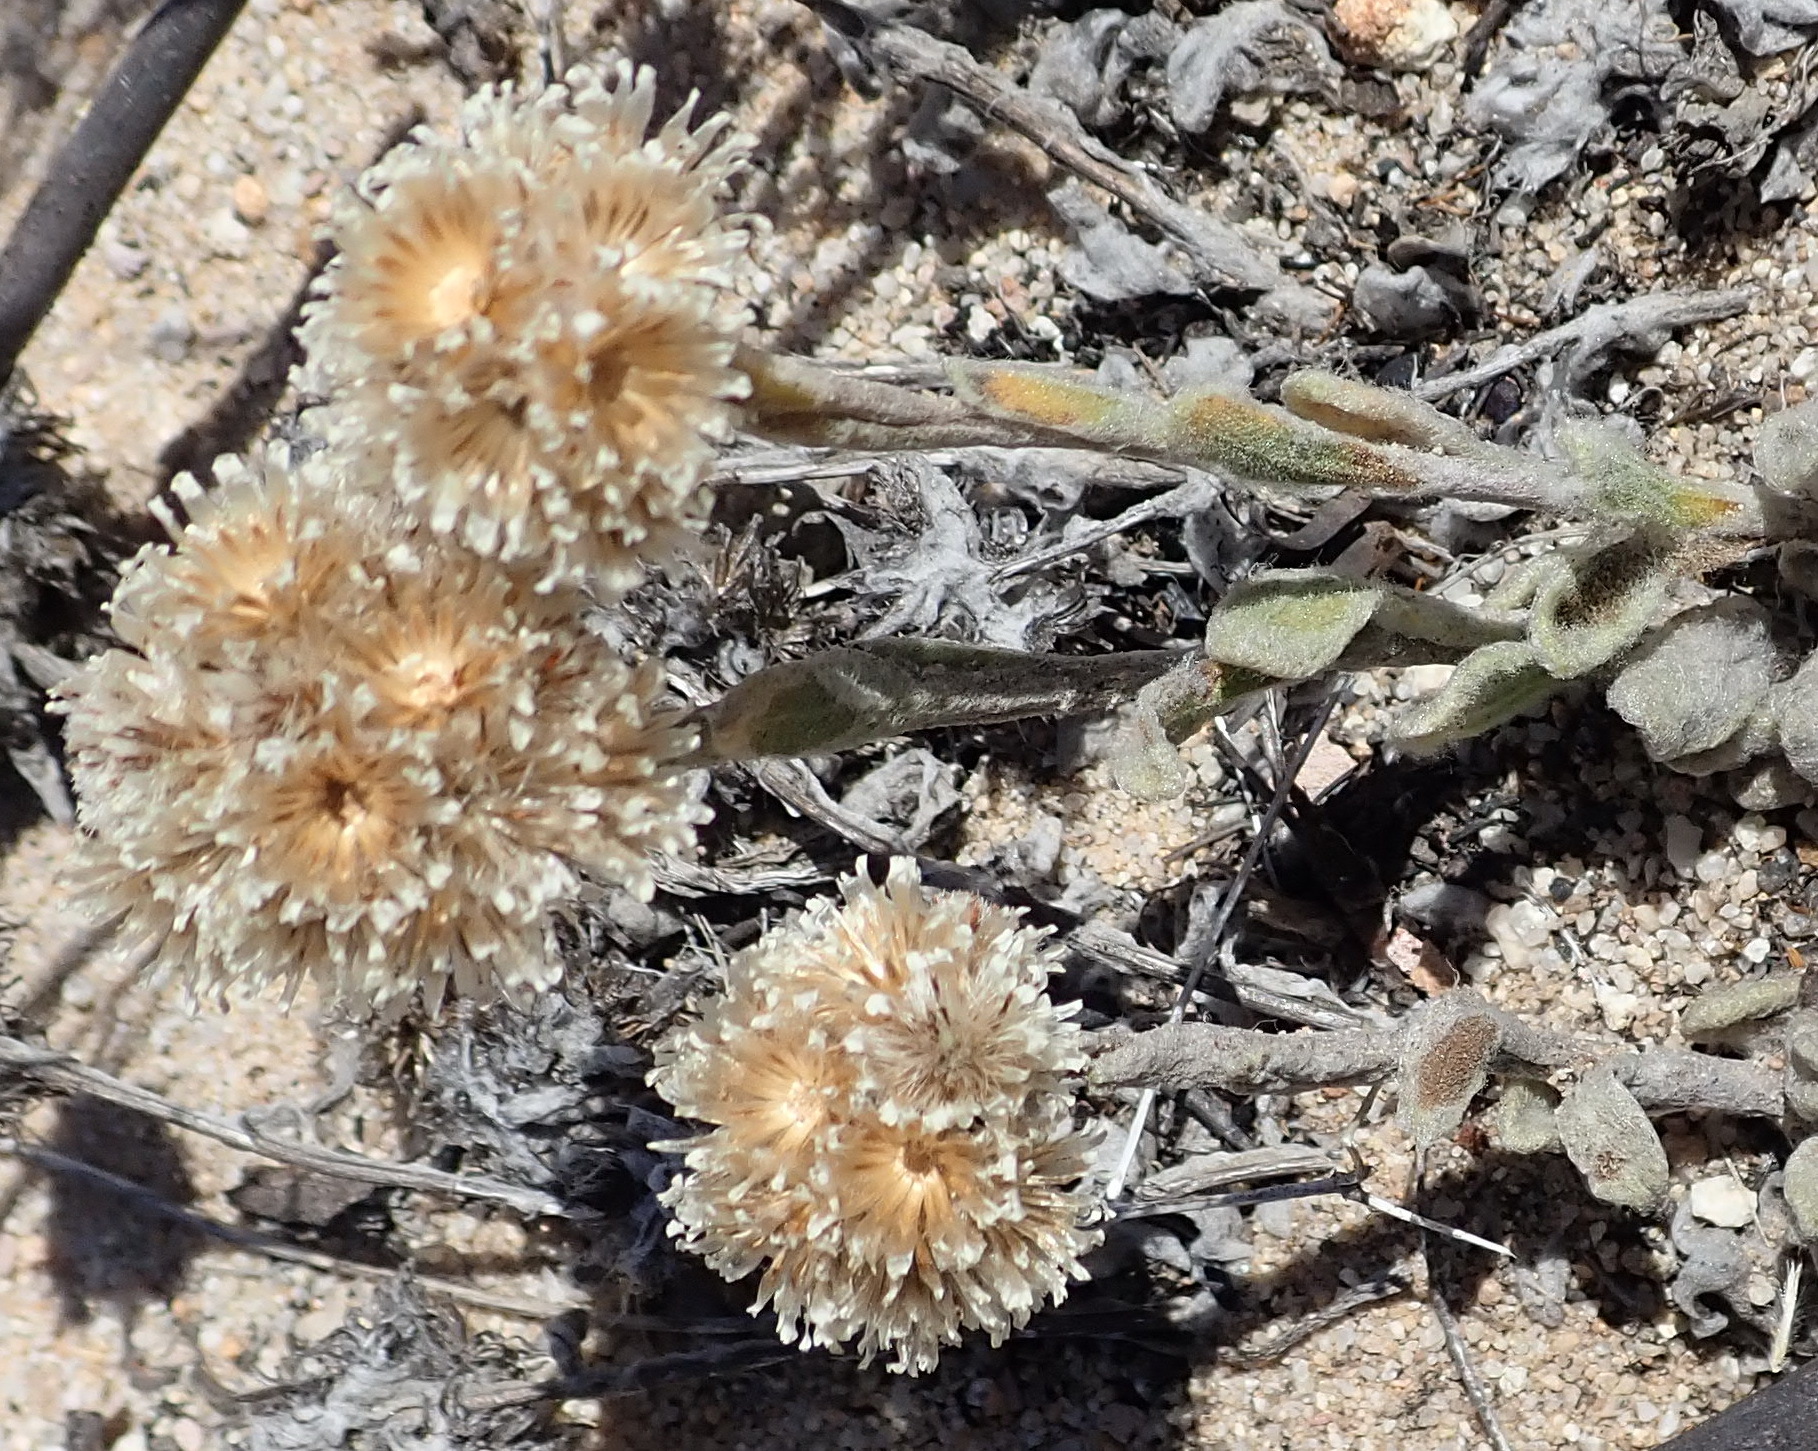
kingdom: Plantae
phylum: Tracheophyta
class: Magnoliopsida
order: Asterales
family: Asteraceae
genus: Helichrysum
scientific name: Helichrysum rotundifolium
